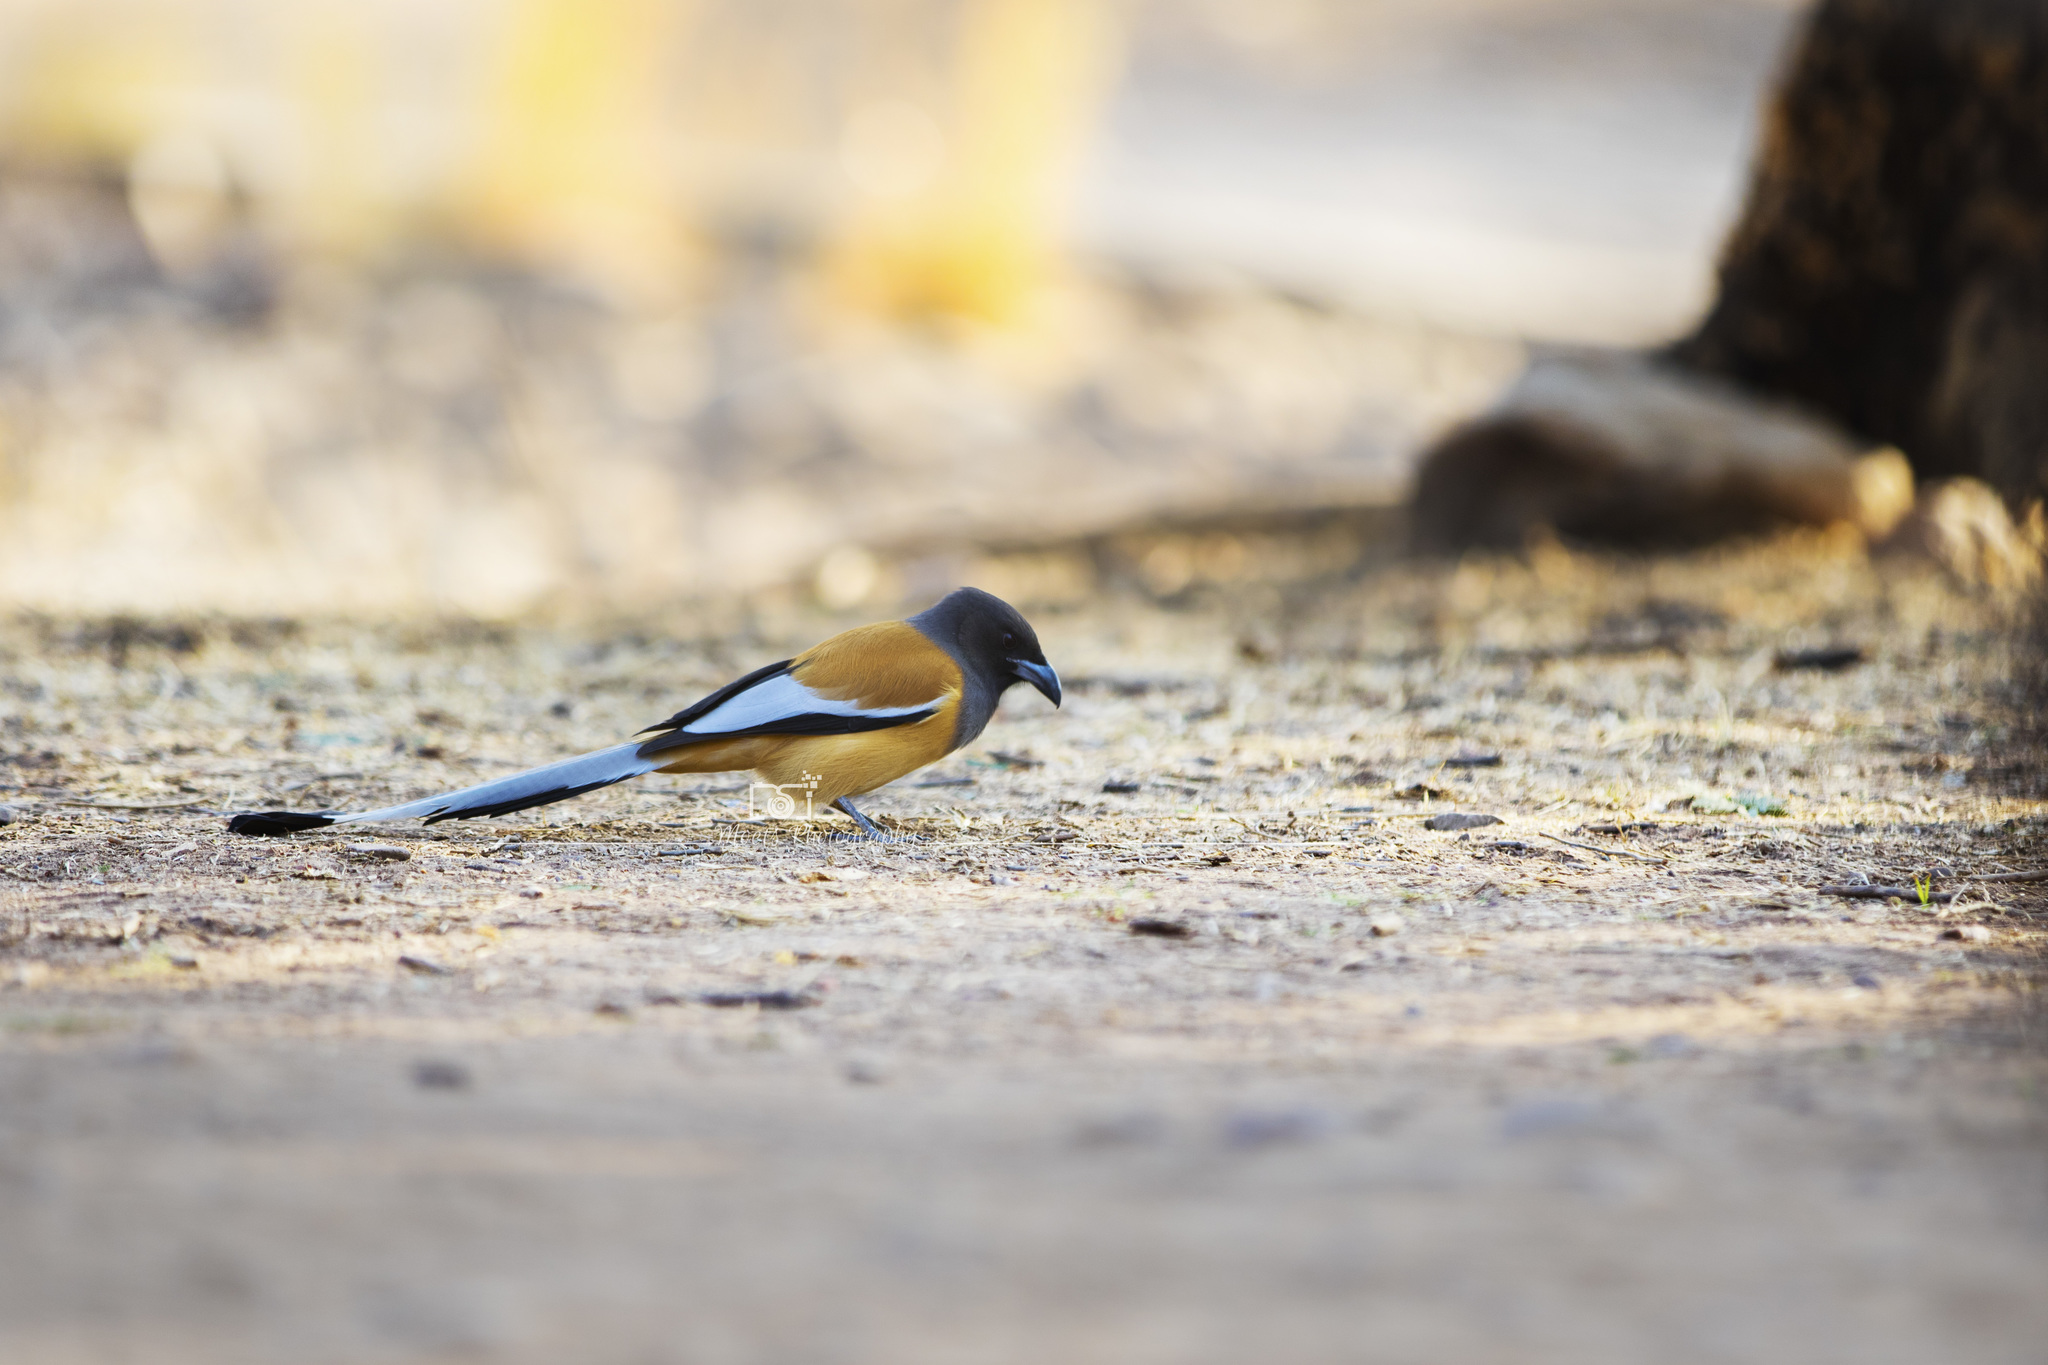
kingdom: Animalia
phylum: Chordata
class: Aves
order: Passeriformes
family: Corvidae
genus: Dendrocitta
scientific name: Dendrocitta vagabunda
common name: Rufous treepie
